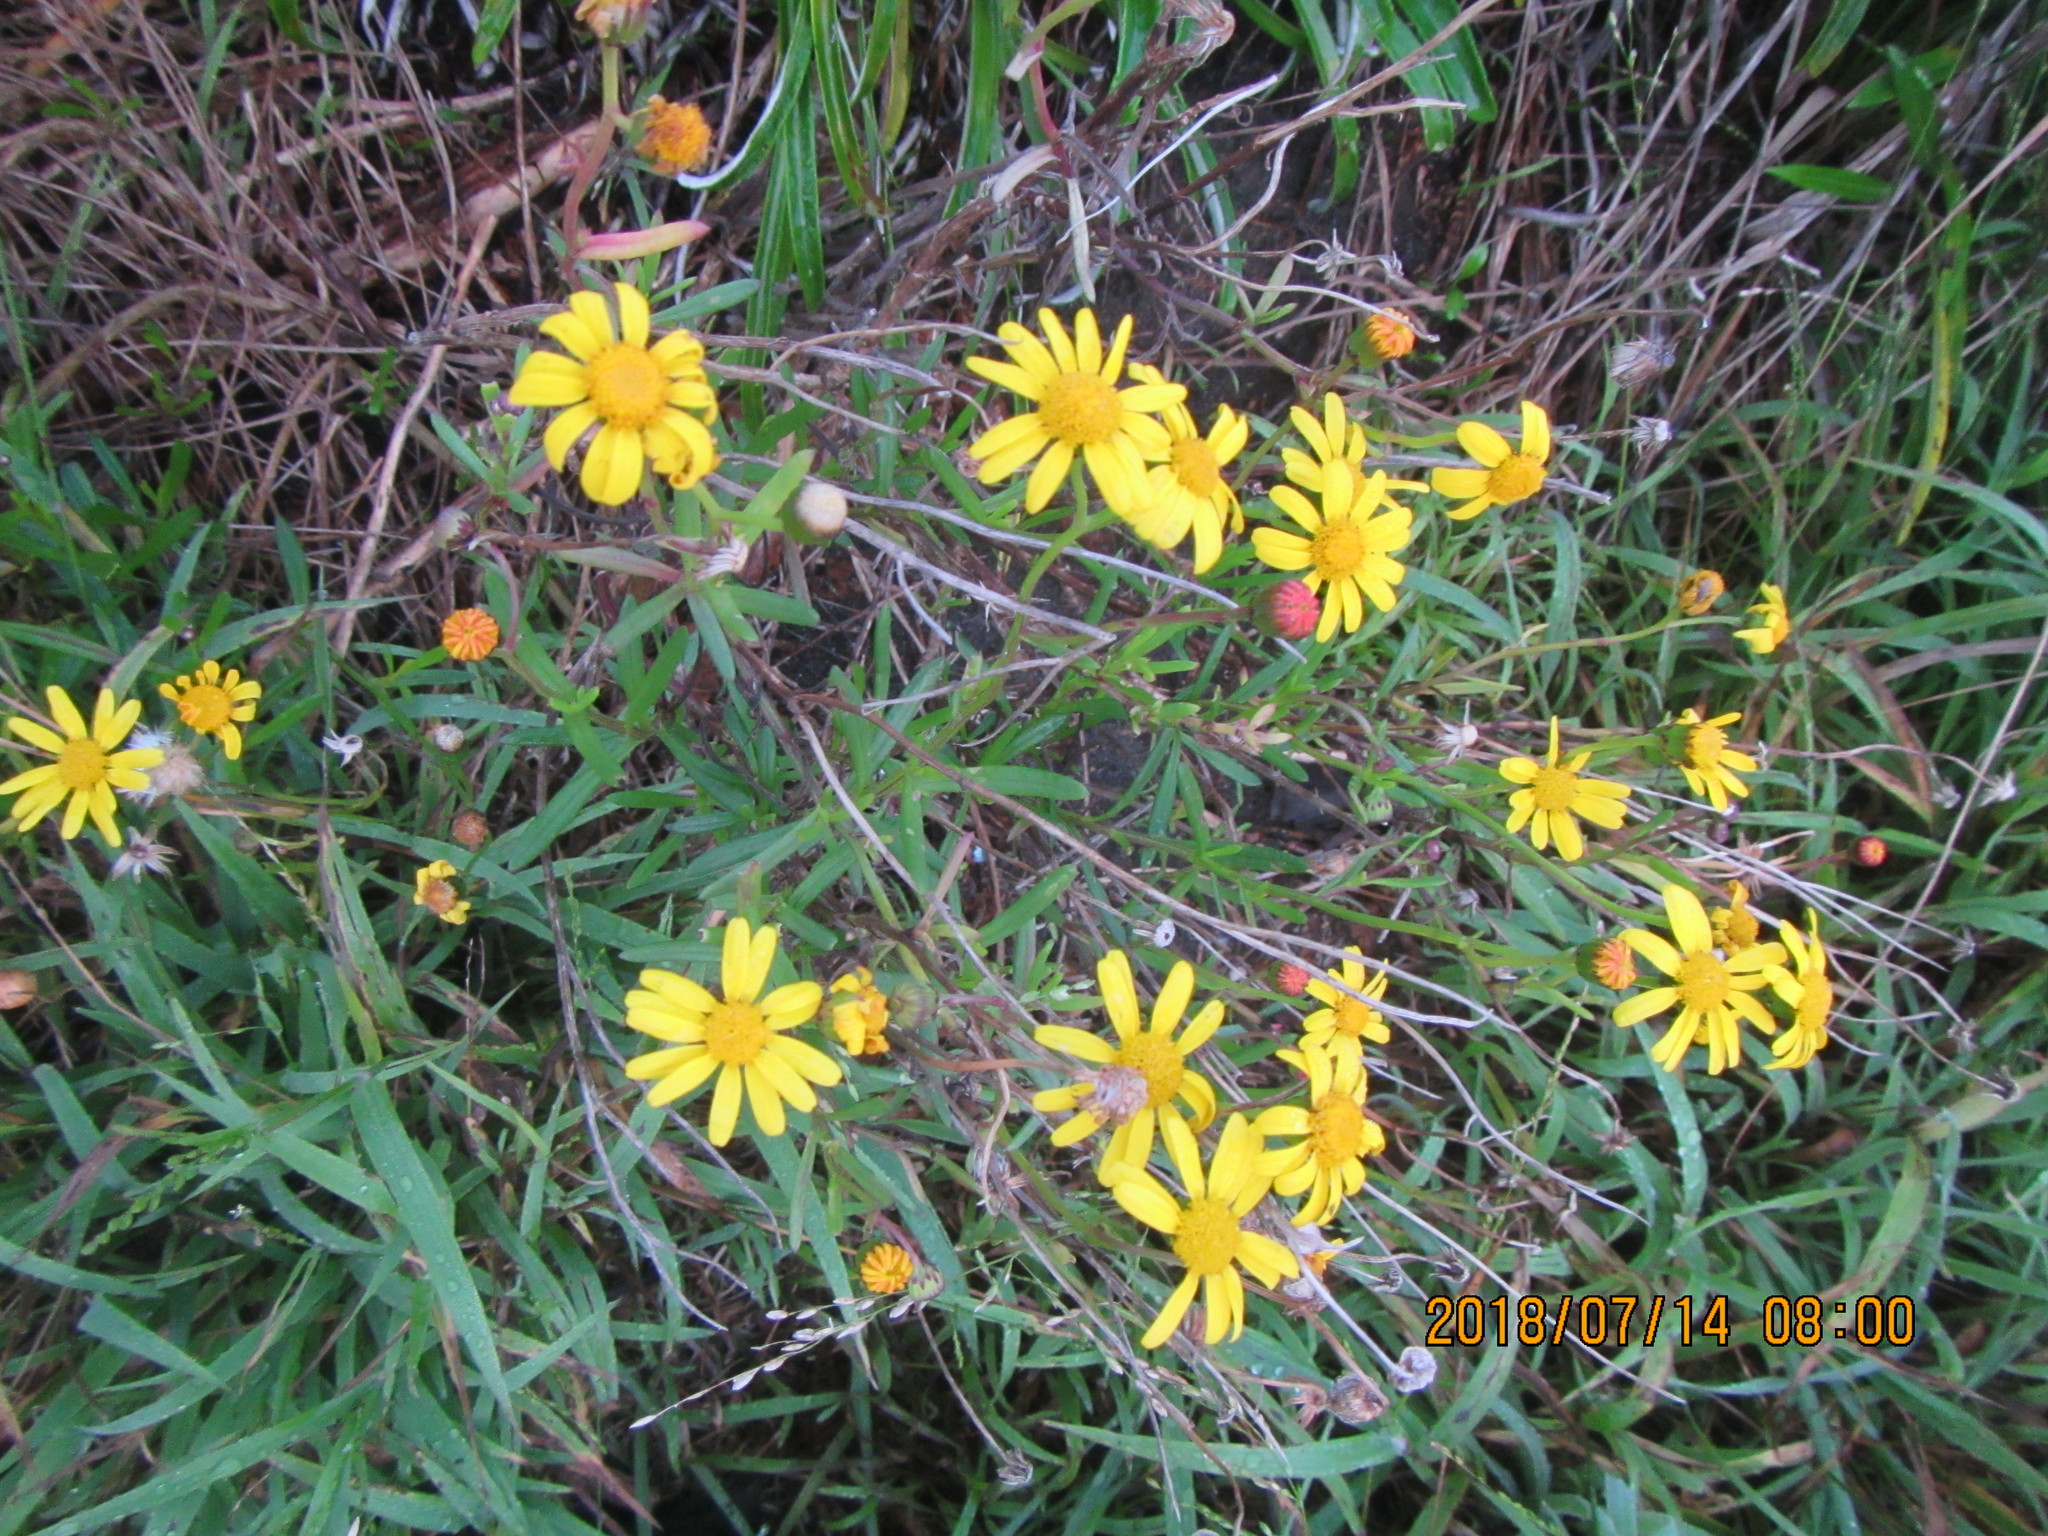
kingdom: Plantae
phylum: Tracheophyta
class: Magnoliopsida
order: Asterales
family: Asteraceae
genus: Senecio
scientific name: Senecio skirrhodon
